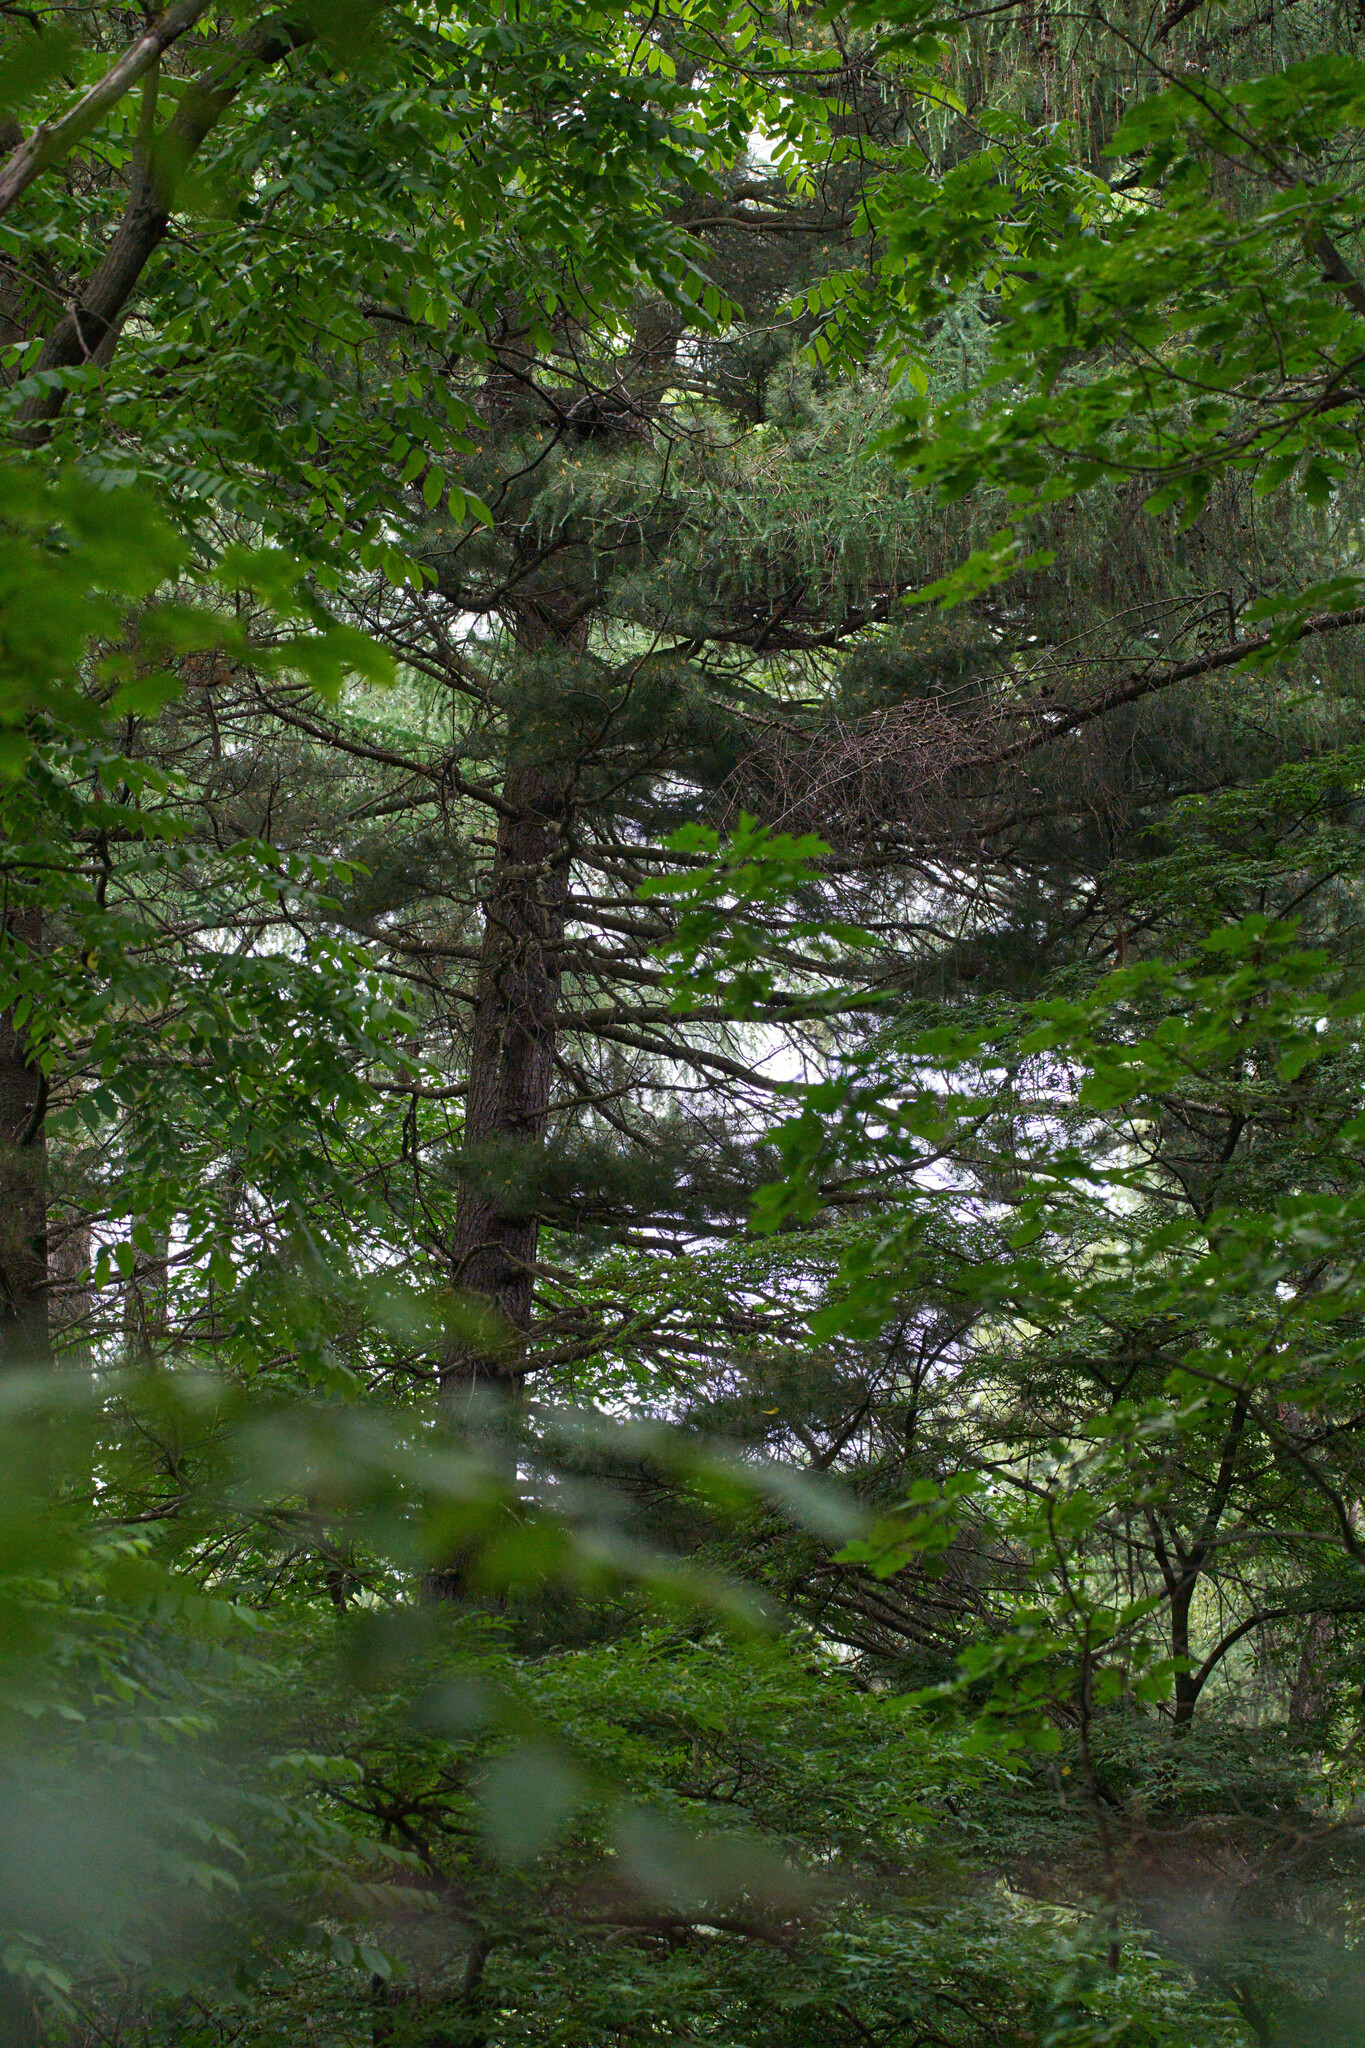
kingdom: Animalia
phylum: Chordata
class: Aves
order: Accipitriformes
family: Accipitridae
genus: Accipiter
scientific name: Accipiter gentilis
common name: Northern goshawk
